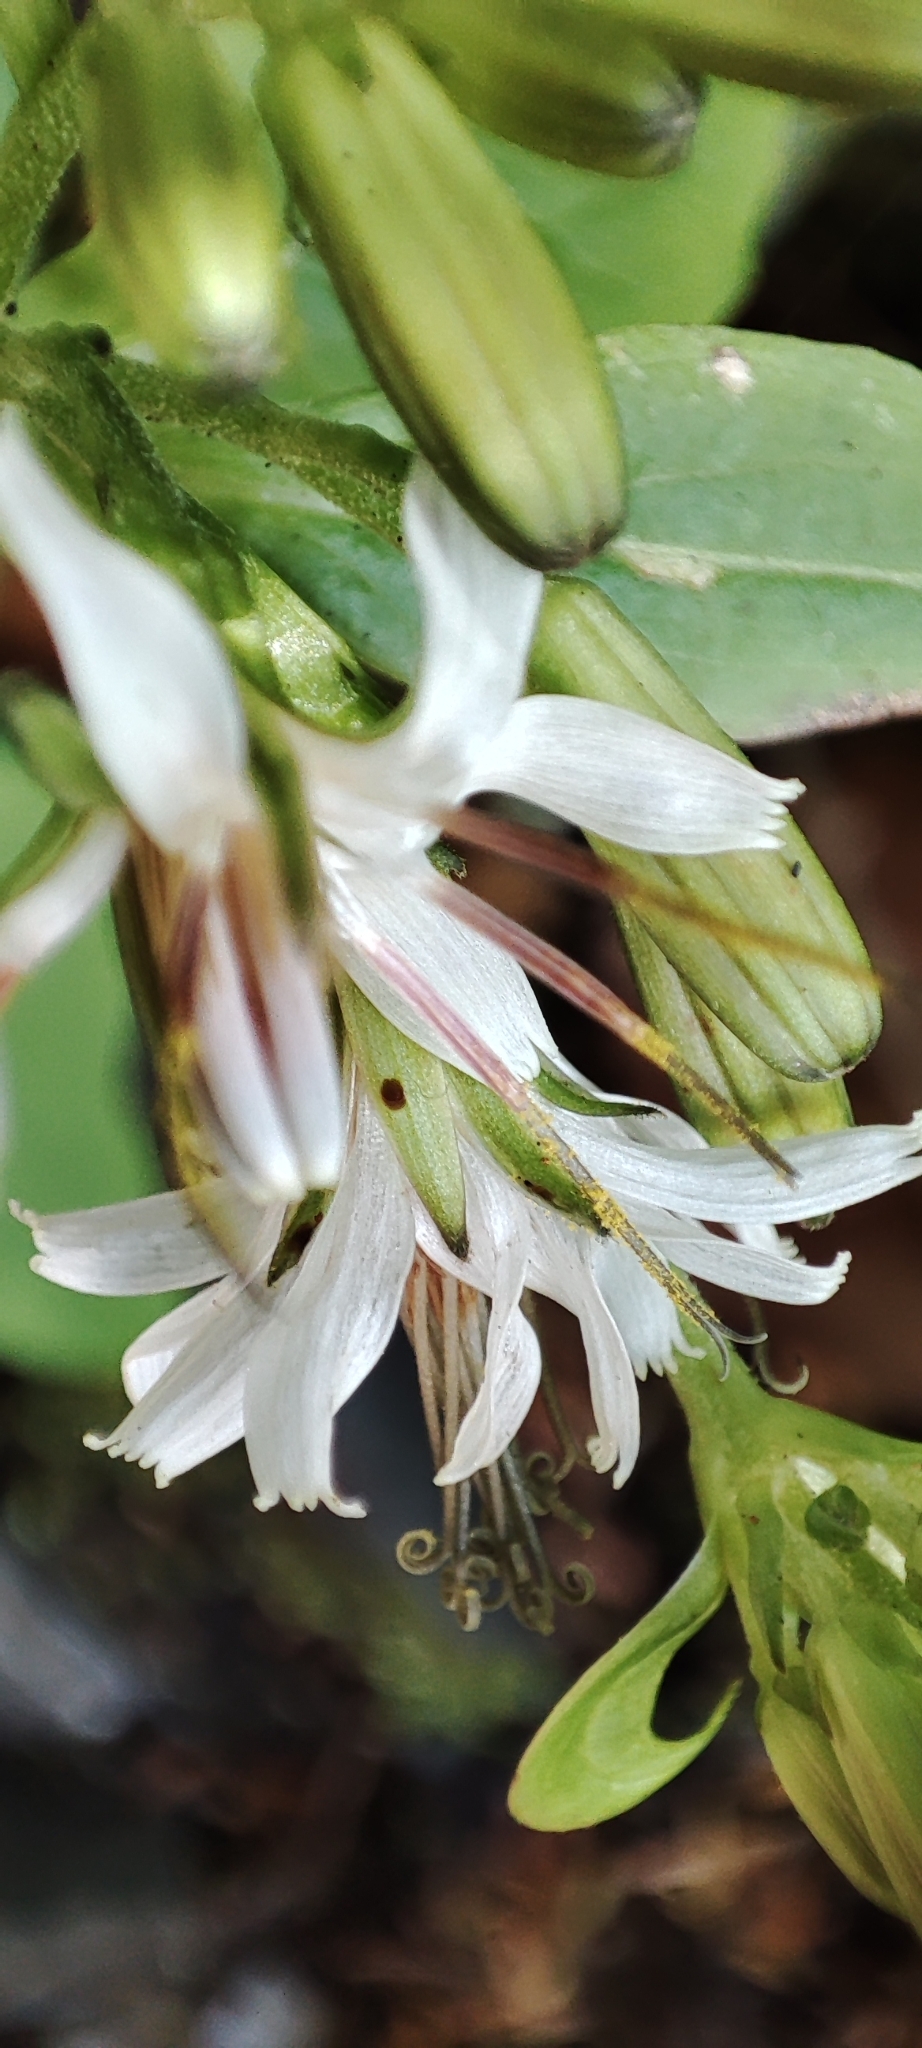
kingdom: Plantae
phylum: Tracheophyta
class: Magnoliopsida
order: Asterales
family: Asteraceae
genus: Nabalus
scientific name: Nabalus hastatus
